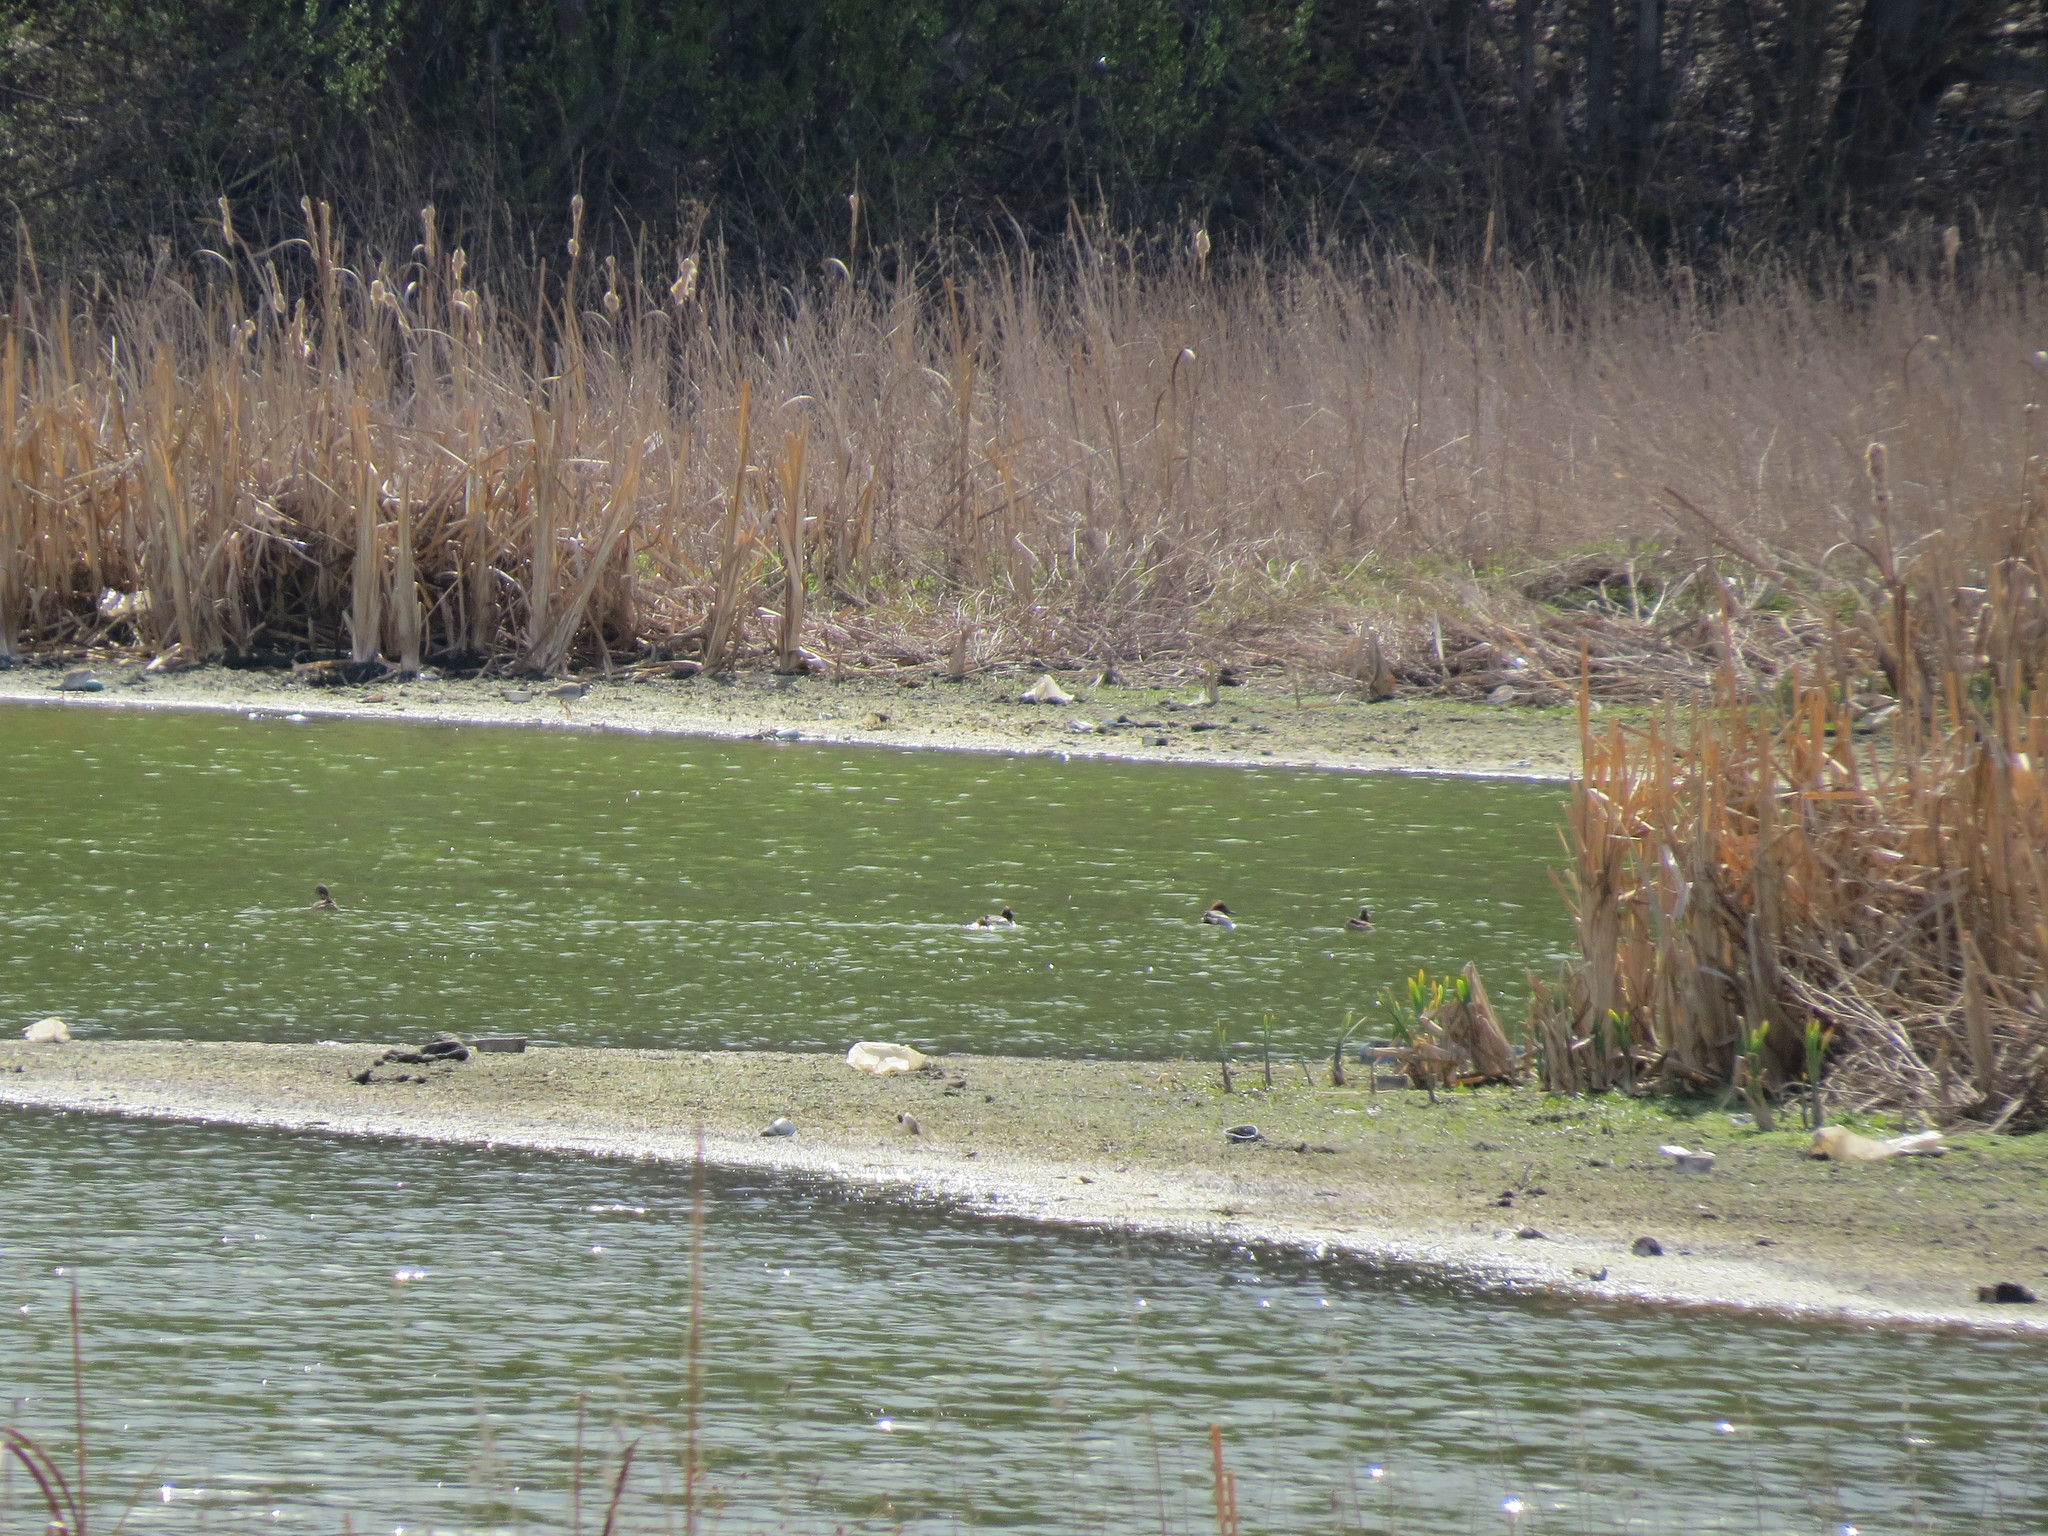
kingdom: Animalia
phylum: Chordata
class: Aves
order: Anseriformes
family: Anatidae
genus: Anas
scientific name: Anas crecca
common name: Eurasian teal
